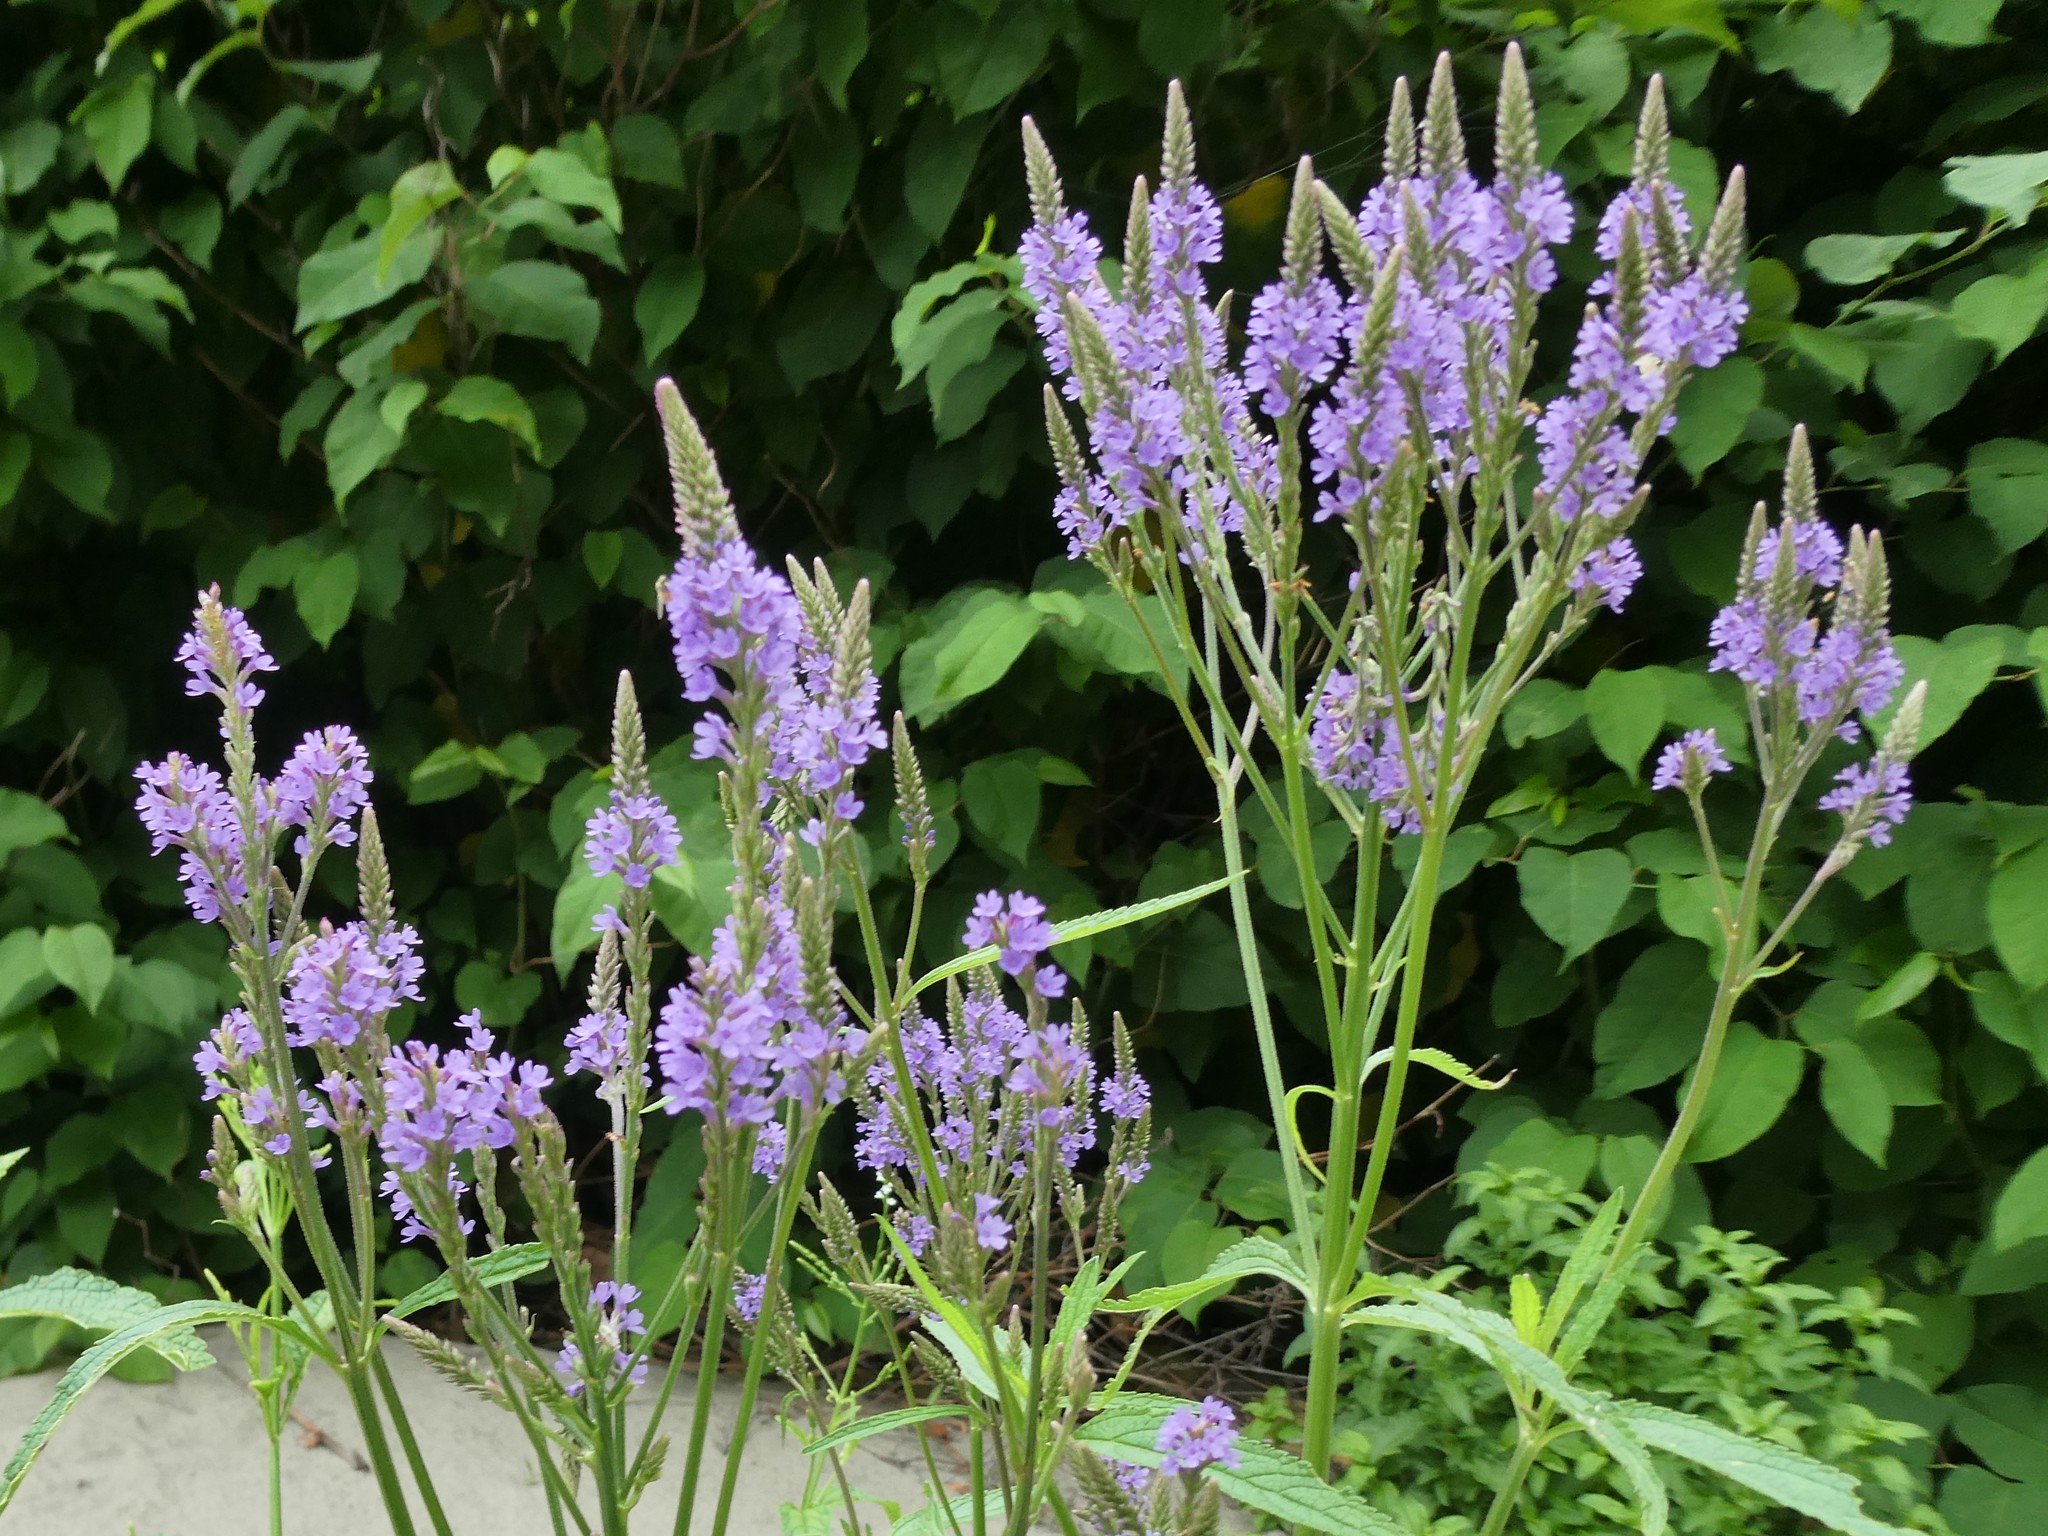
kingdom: Plantae
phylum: Tracheophyta
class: Magnoliopsida
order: Lamiales
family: Verbenaceae
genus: Verbena
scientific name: Verbena hastata
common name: American blue vervain
